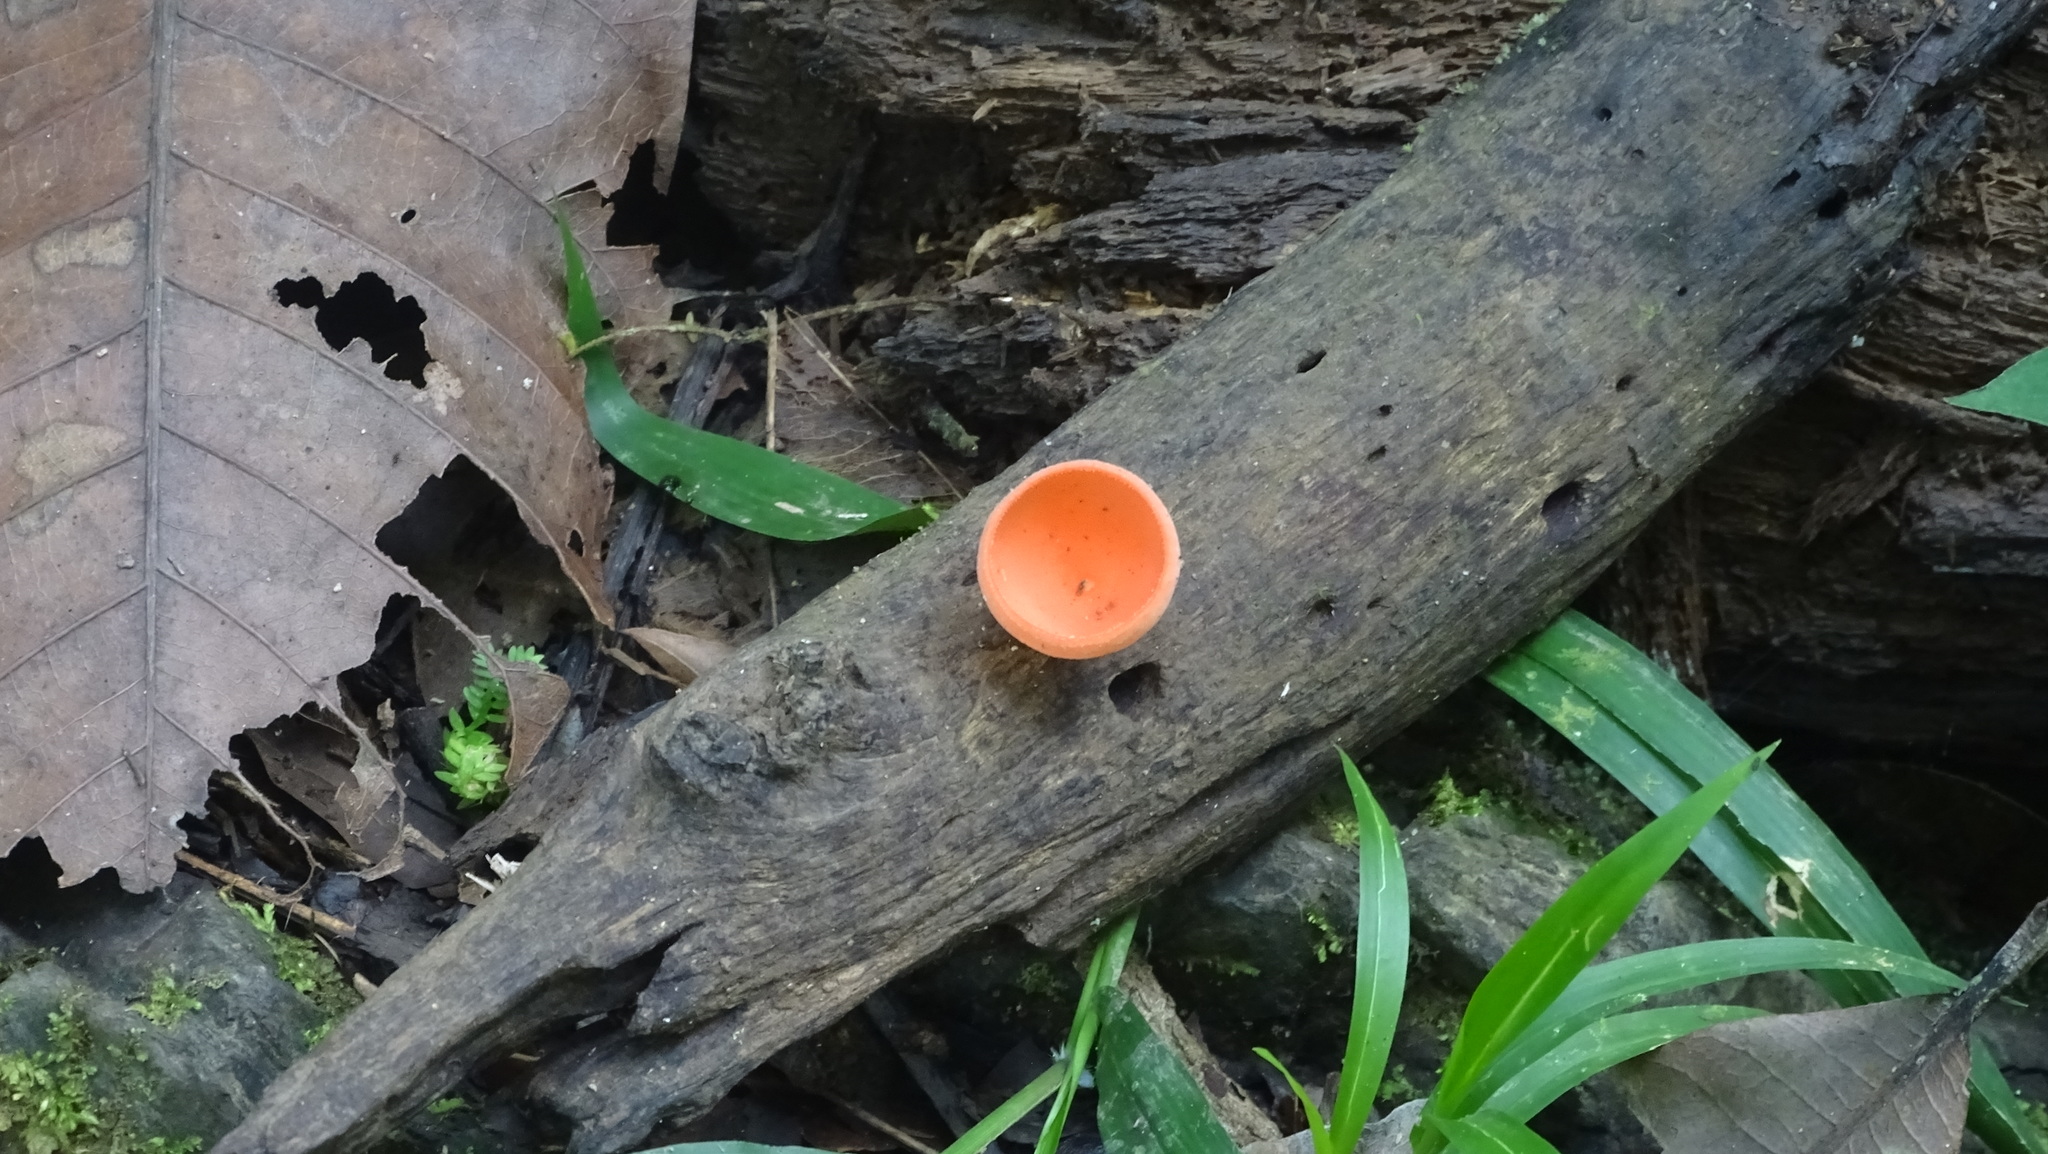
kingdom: Fungi
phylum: Ascomycota
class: Pezizomycetes
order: Pezizales
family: Sarcoscyphaceae
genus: Cookeina
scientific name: Cookeina speciosa
